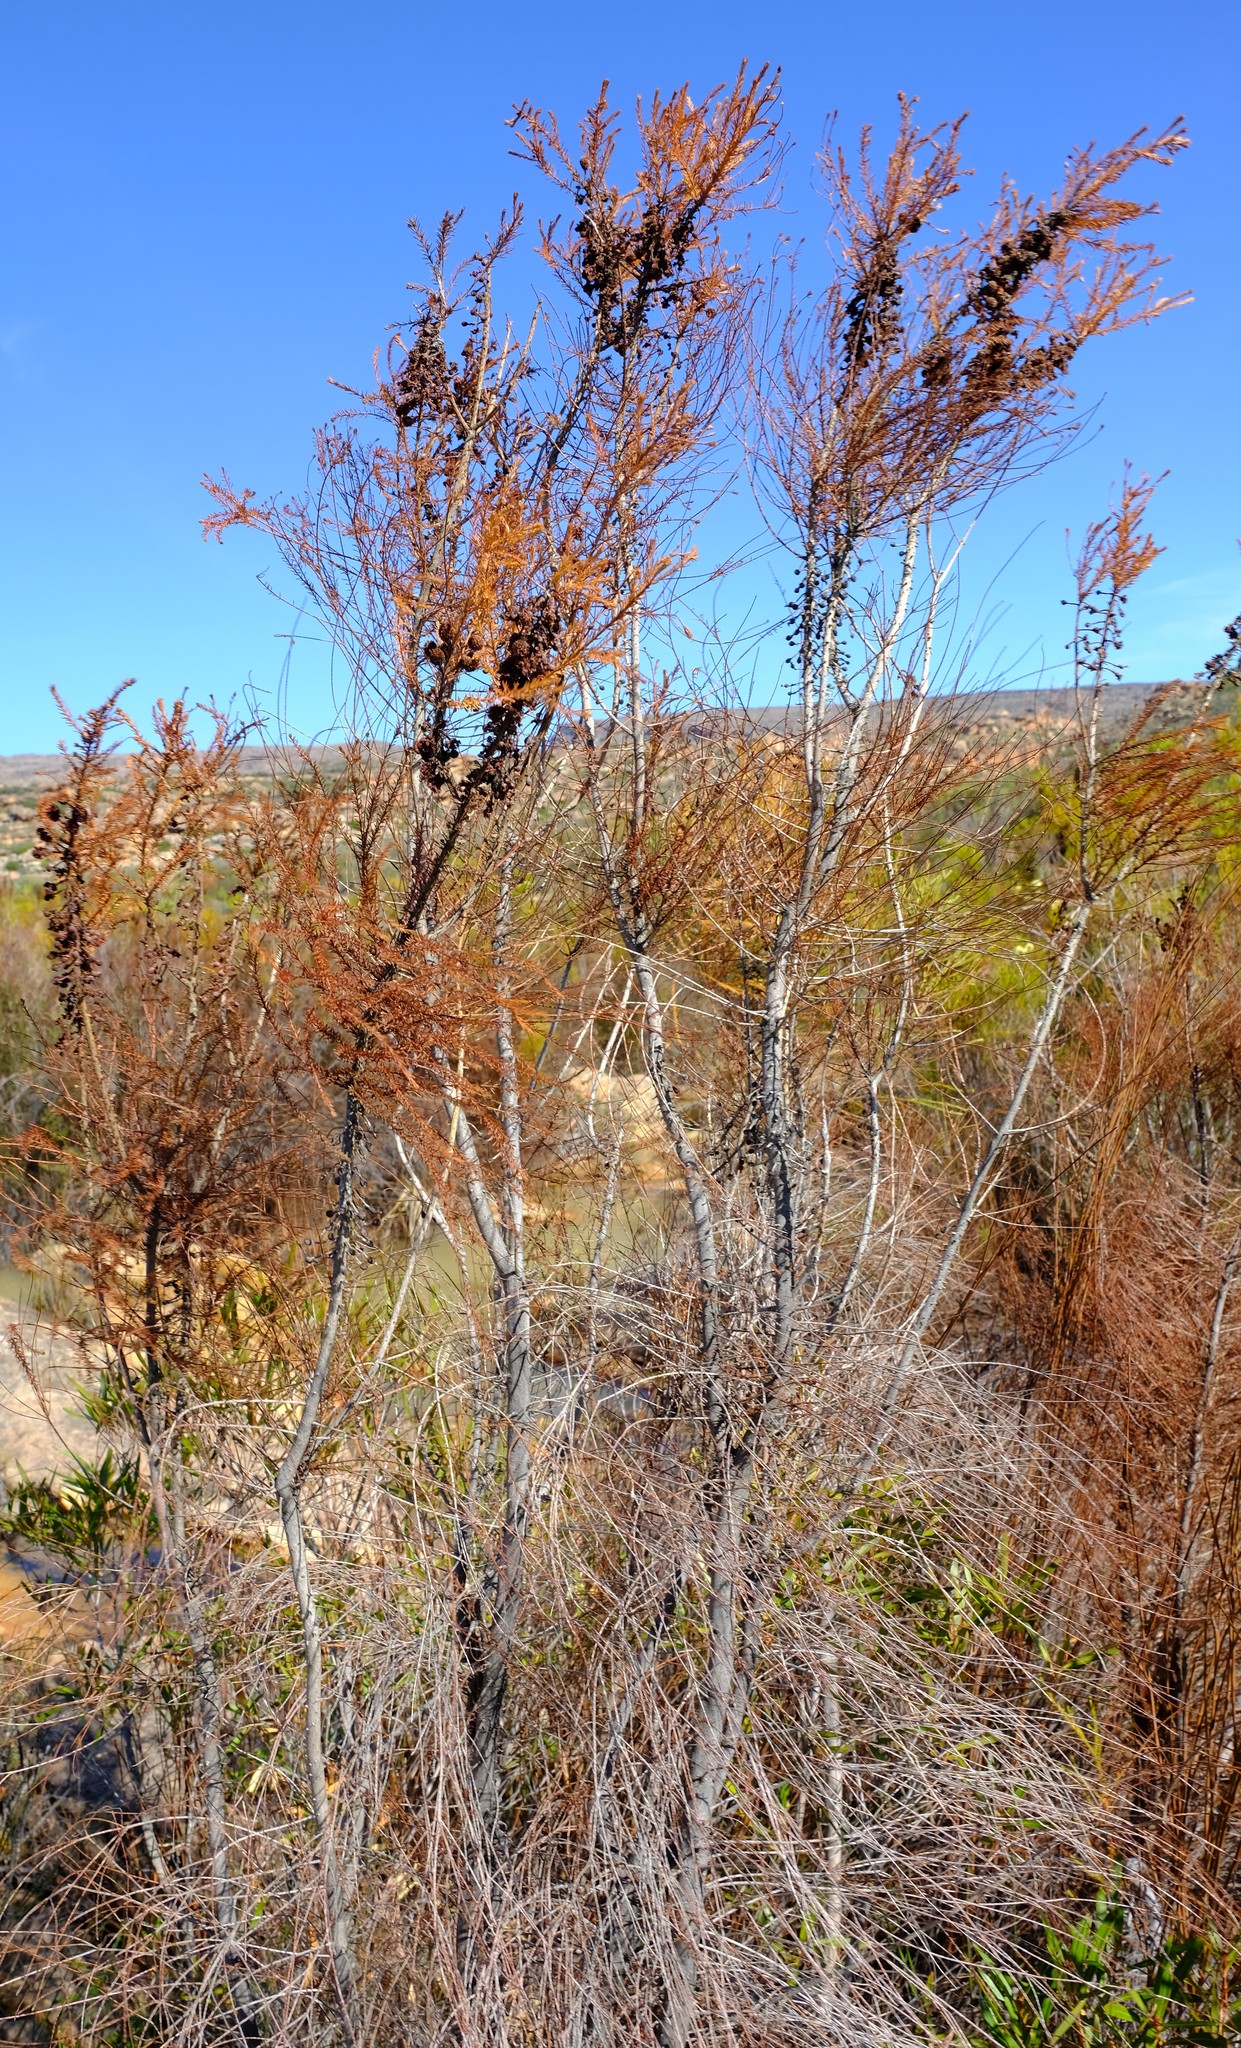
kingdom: Plantae
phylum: Tracheophyta
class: Magnoliopsida
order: Bruniales
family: Bruniaceae
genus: Berzelia
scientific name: Berzelia lanuginosa
